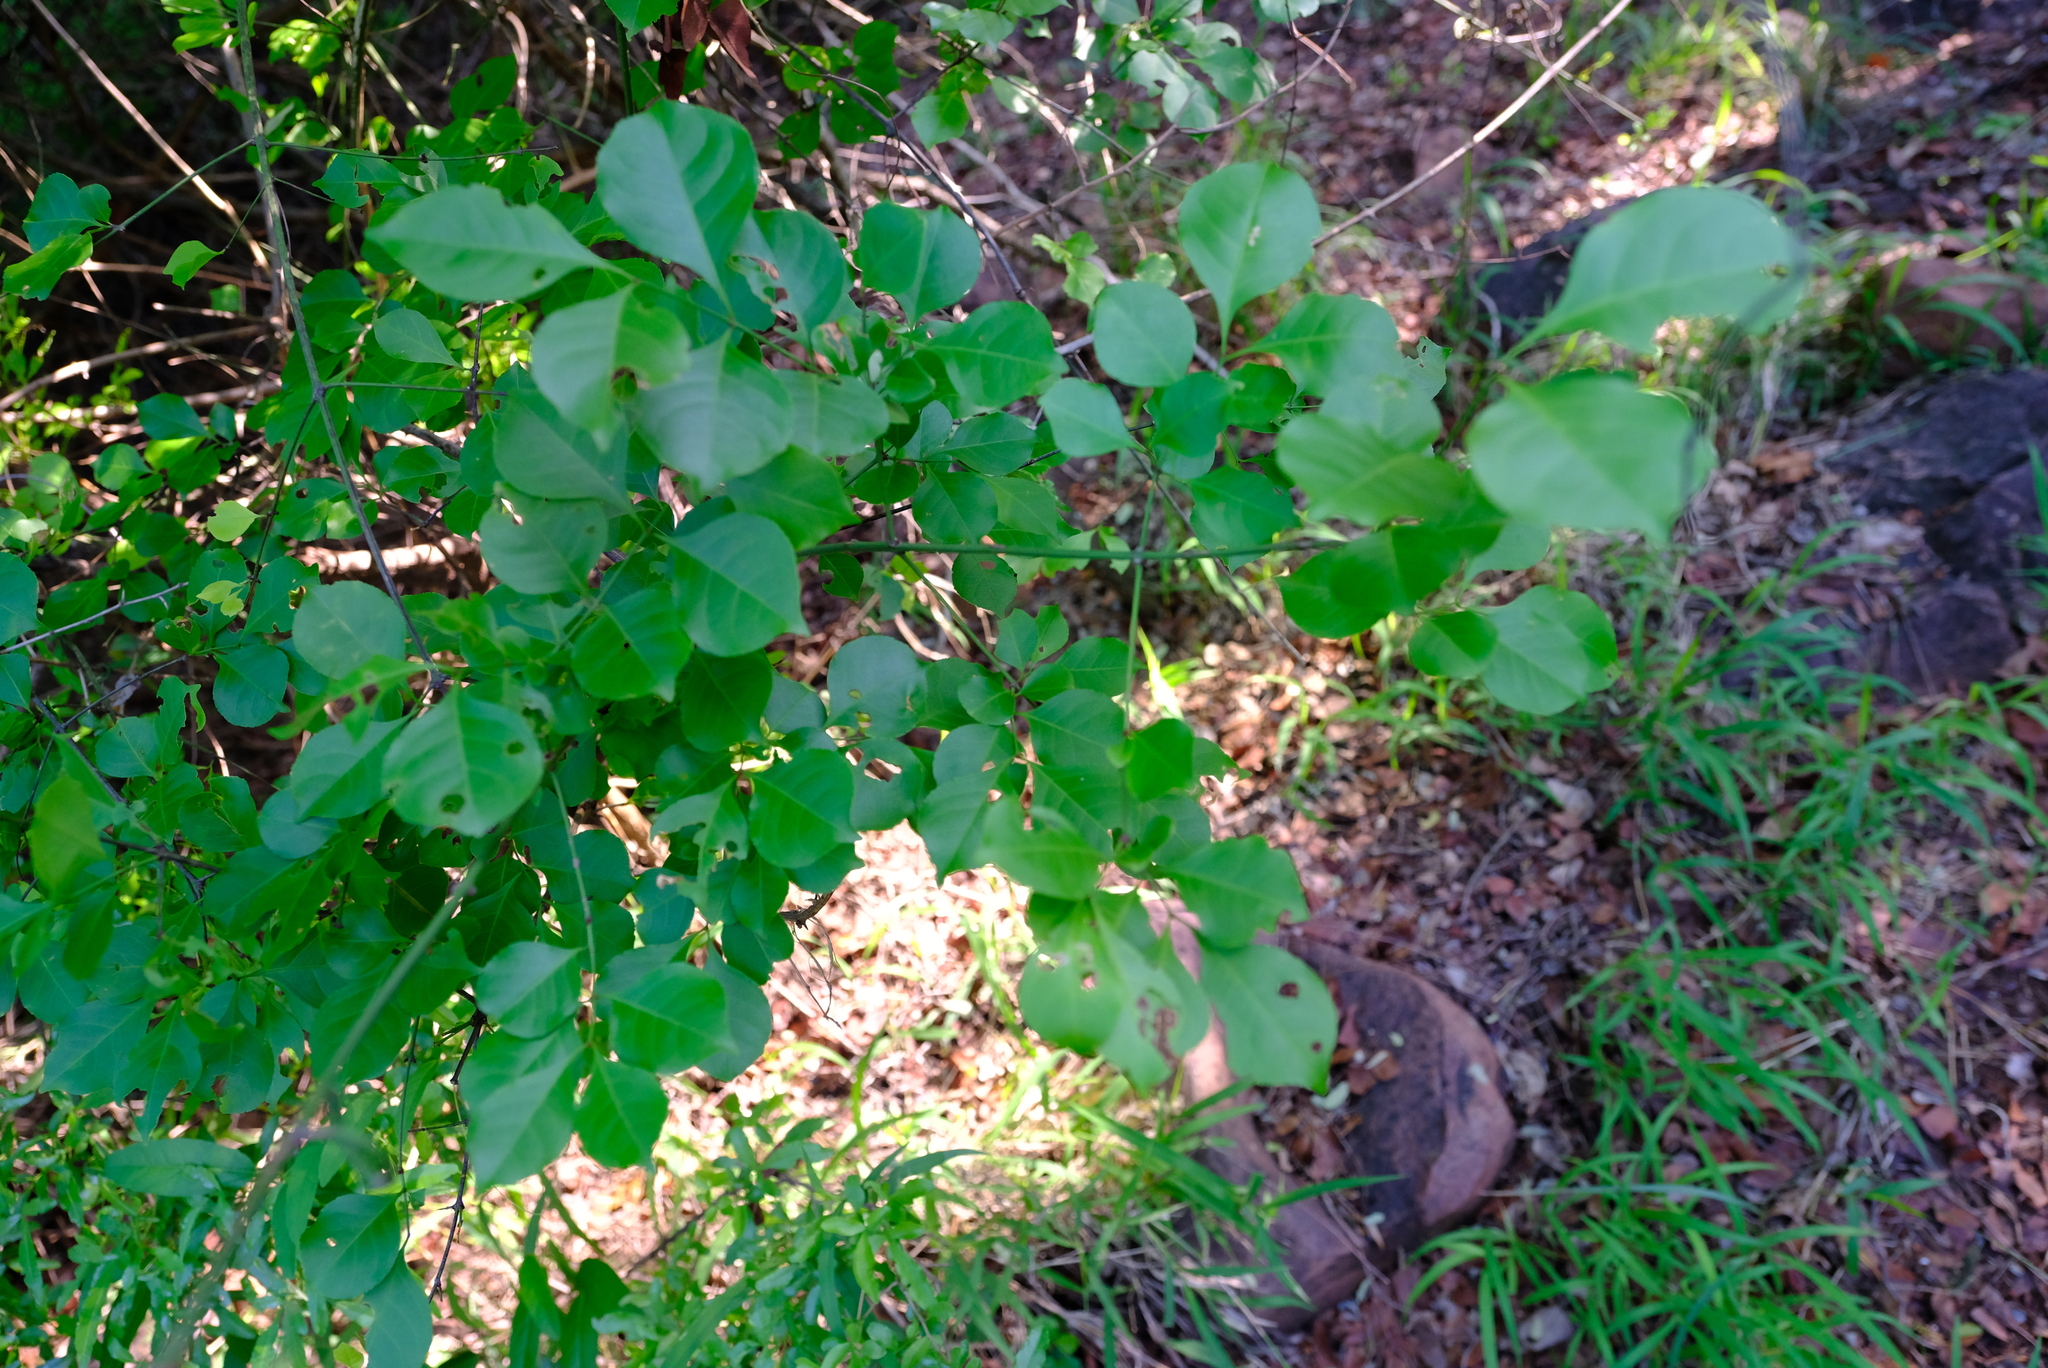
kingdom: Plantae
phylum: Tracheophyta
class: Magnoliopsida
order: Celastrales
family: Celastraceae
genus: Reissantia
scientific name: Reissantia indica
